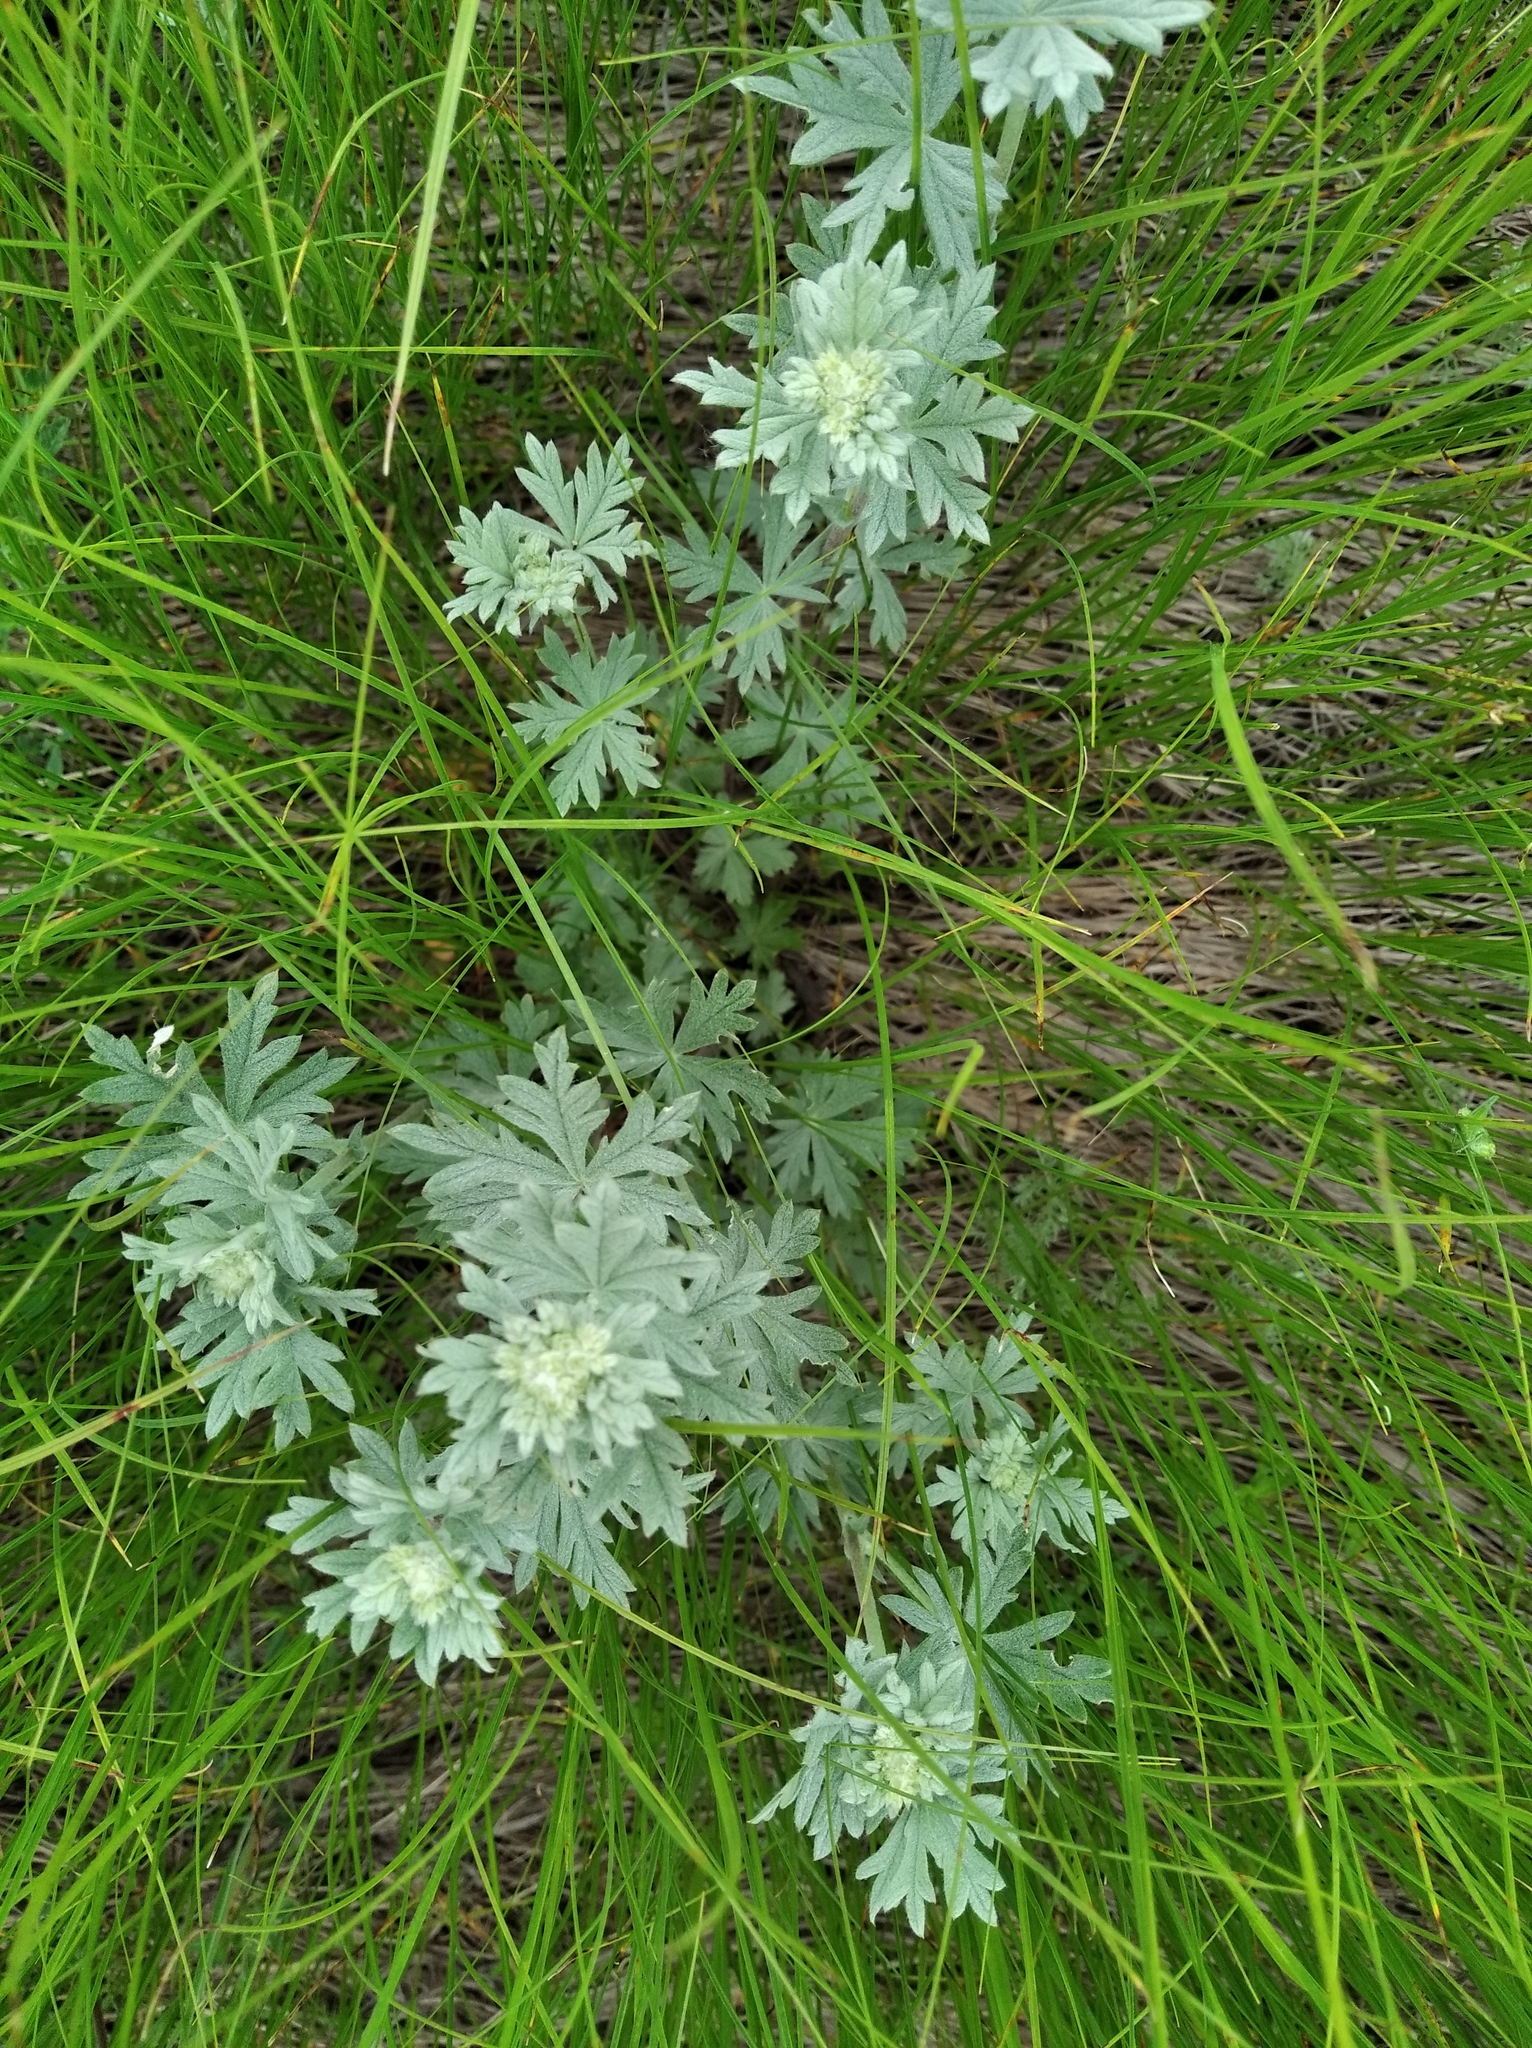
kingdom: Plantae
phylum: Tracheophyta
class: Magnoliopsida
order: Rosales
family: Rosaceae
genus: Potentilla
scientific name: Potentilla argentea
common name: Hoary cinquefoil
